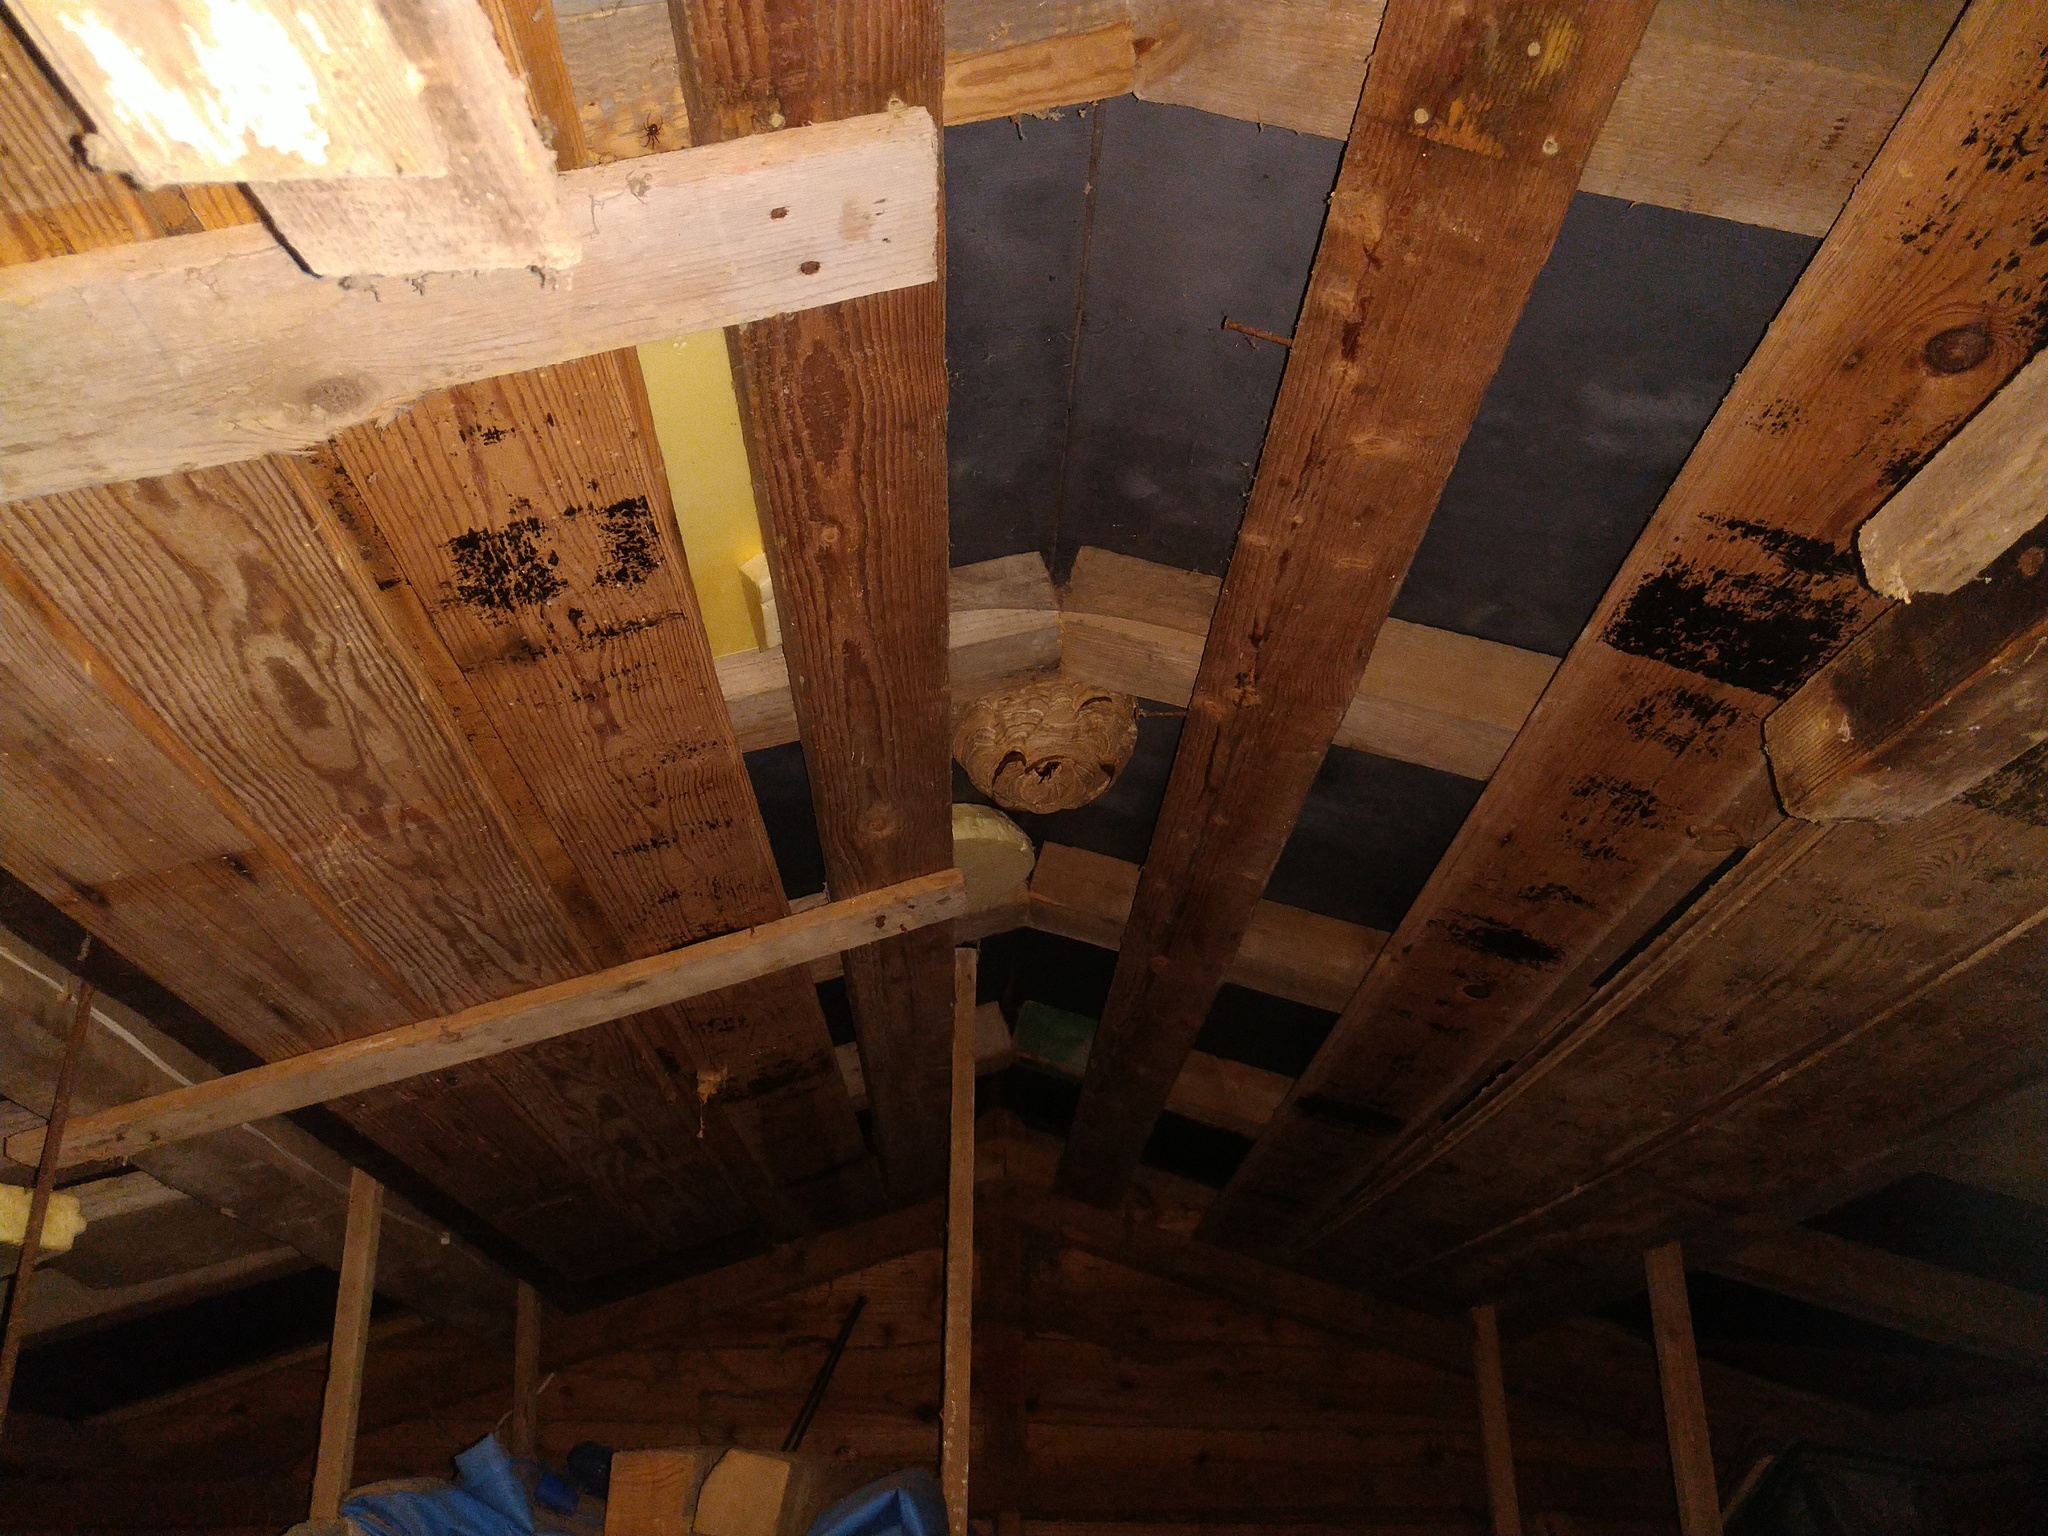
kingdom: Animalia
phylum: Arthropoda
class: Insecta
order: Hymenoptera
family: Vespidae
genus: Vespa
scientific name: Vespa velutina
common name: Asian hornet
